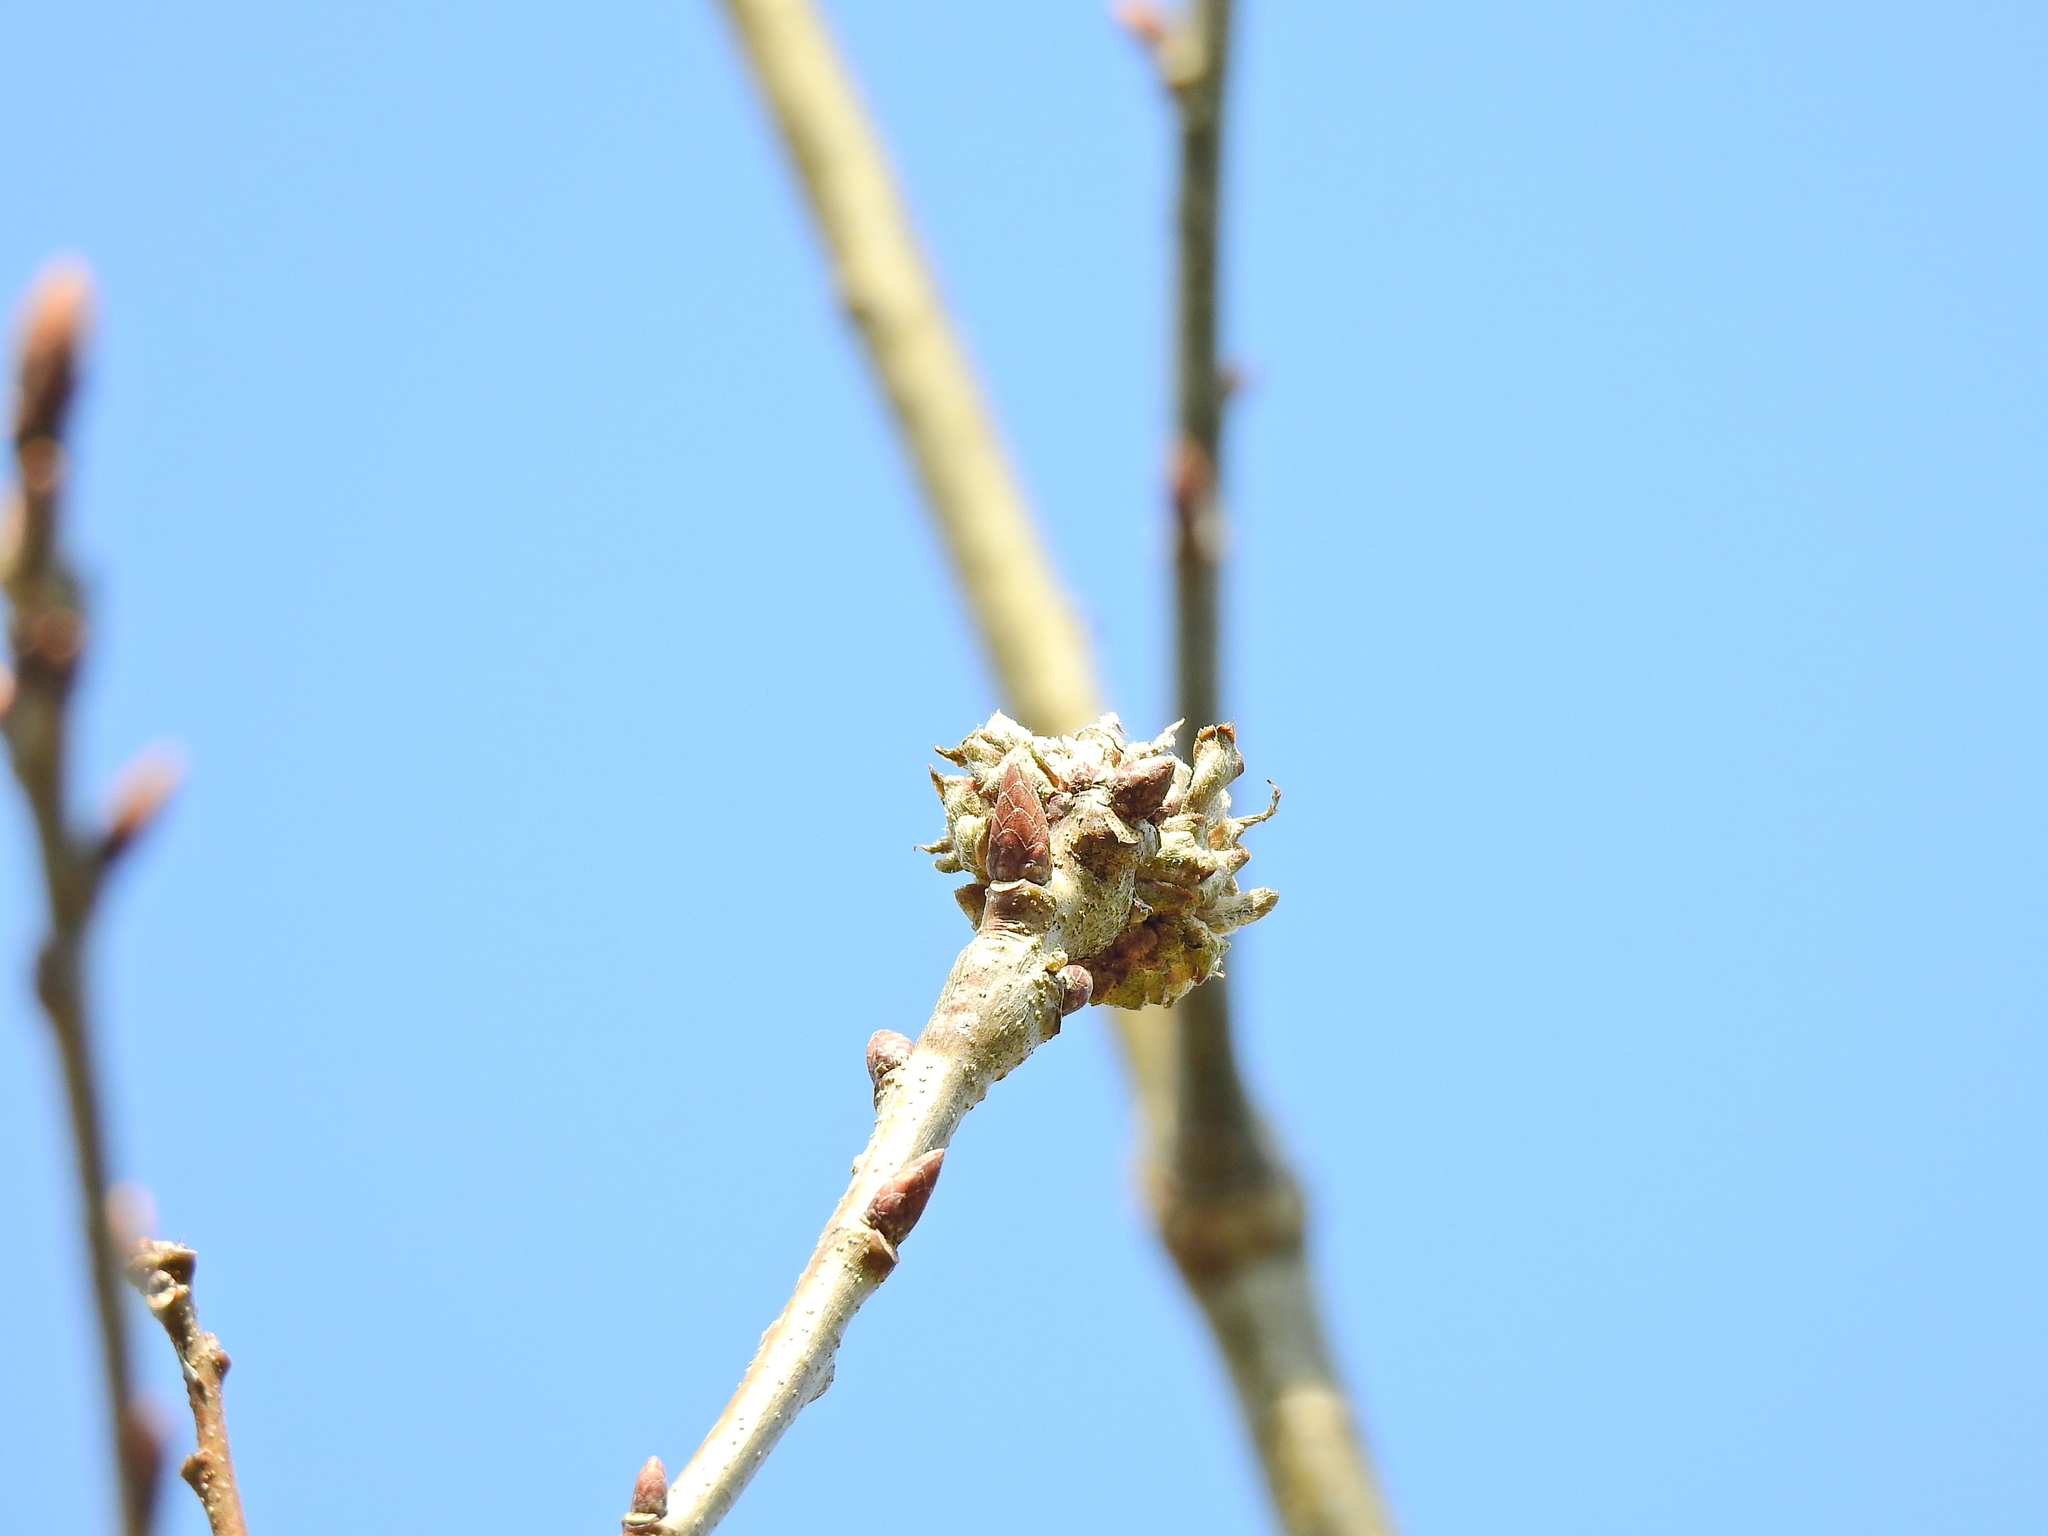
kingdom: Animalia
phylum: Arthropoda
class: Insecta
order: Hymenoptera
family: Cynipidae
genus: Andricus
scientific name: Andricus foecundatrix
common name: Artichoke gall
